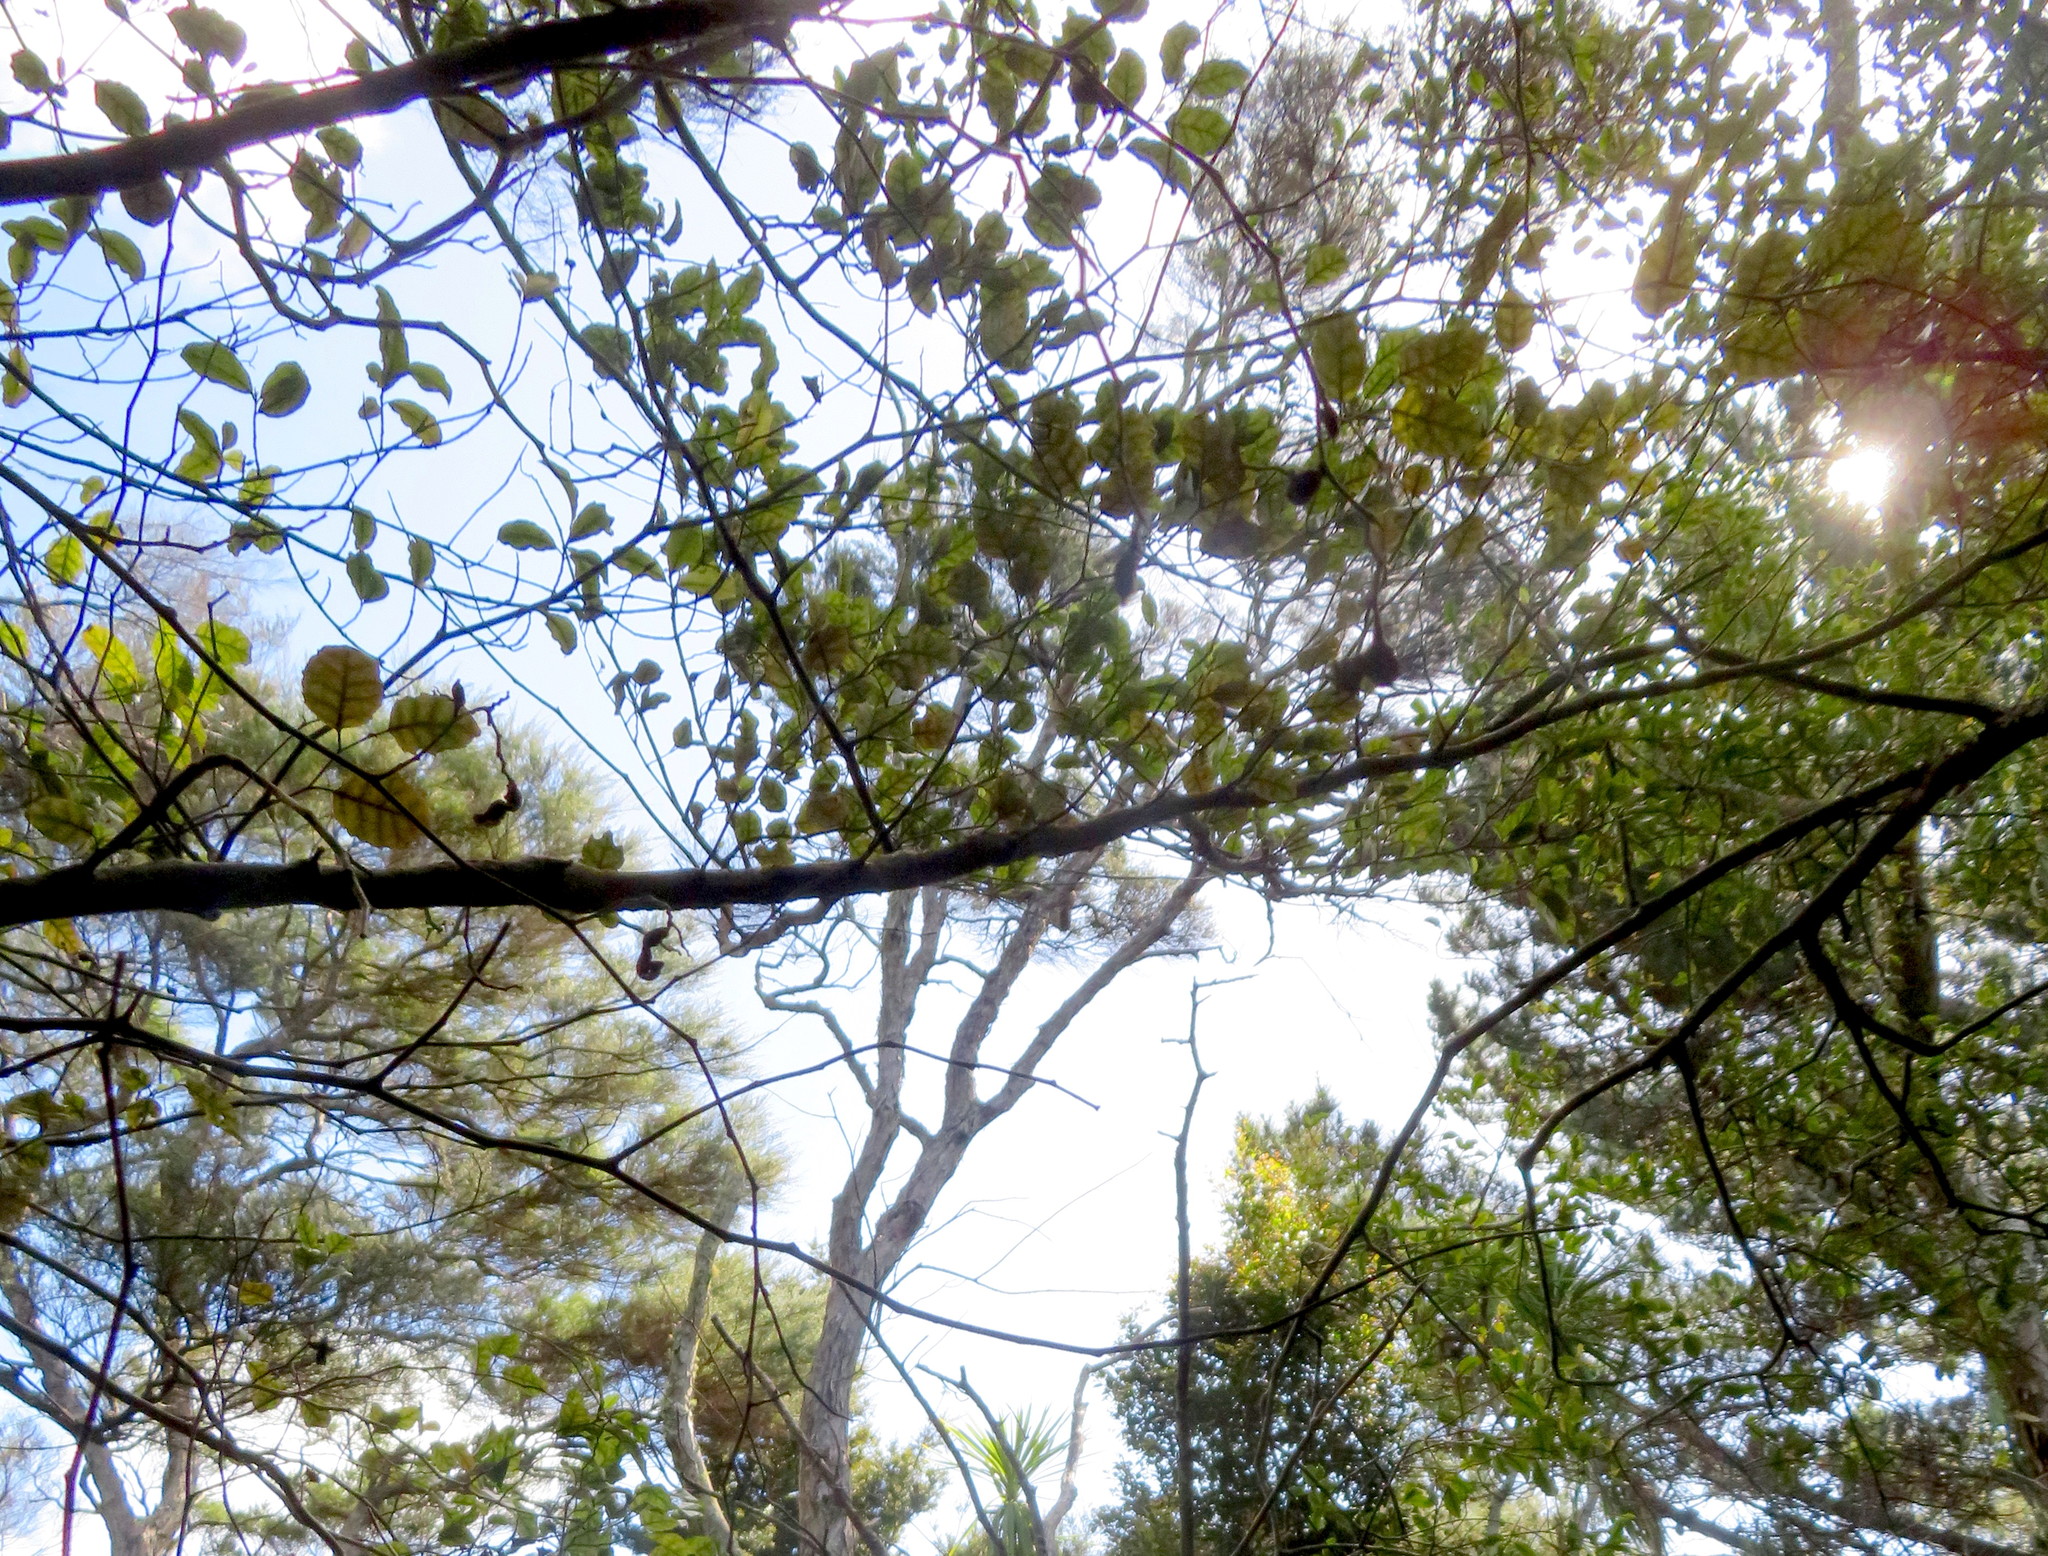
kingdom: Plantae
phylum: Tracheophyta
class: Magnoliopsida
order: Asterales
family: Rousseaceae
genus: Carpodetus
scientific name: Carpodetus serratus
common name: White mapau
